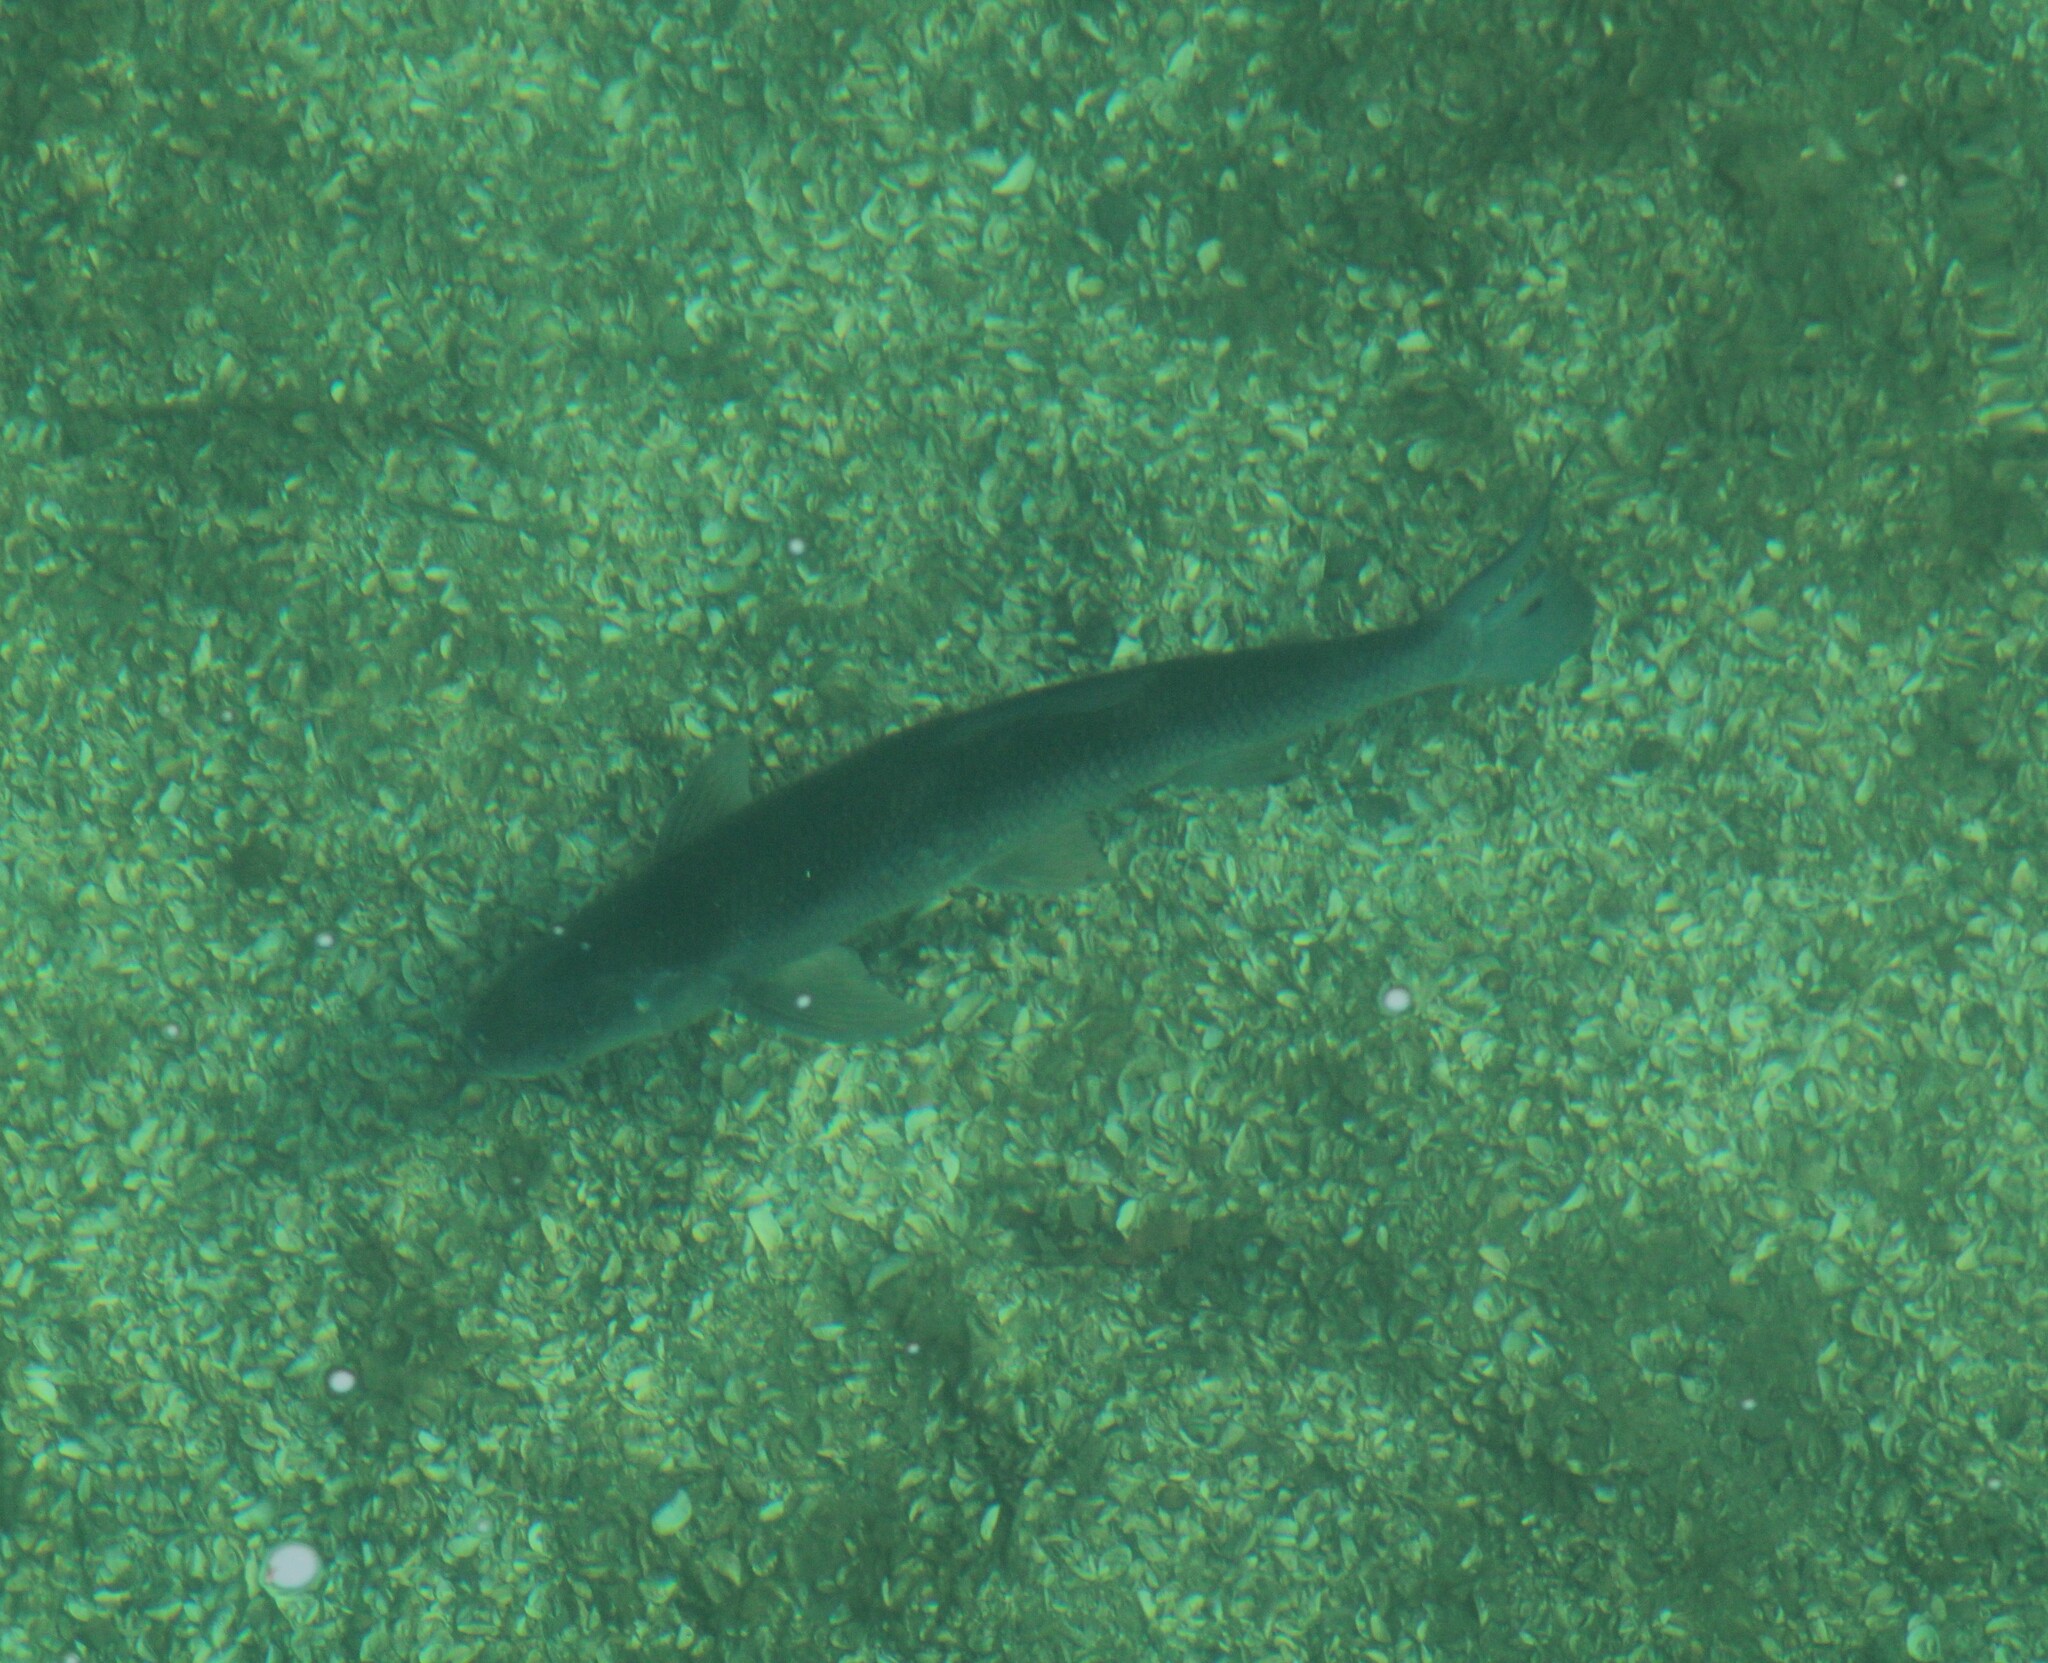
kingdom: Animalia
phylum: Chordata
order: Cypriniformes
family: Cyprinidae
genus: Squalius
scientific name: Squalius cephalus
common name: Chub
